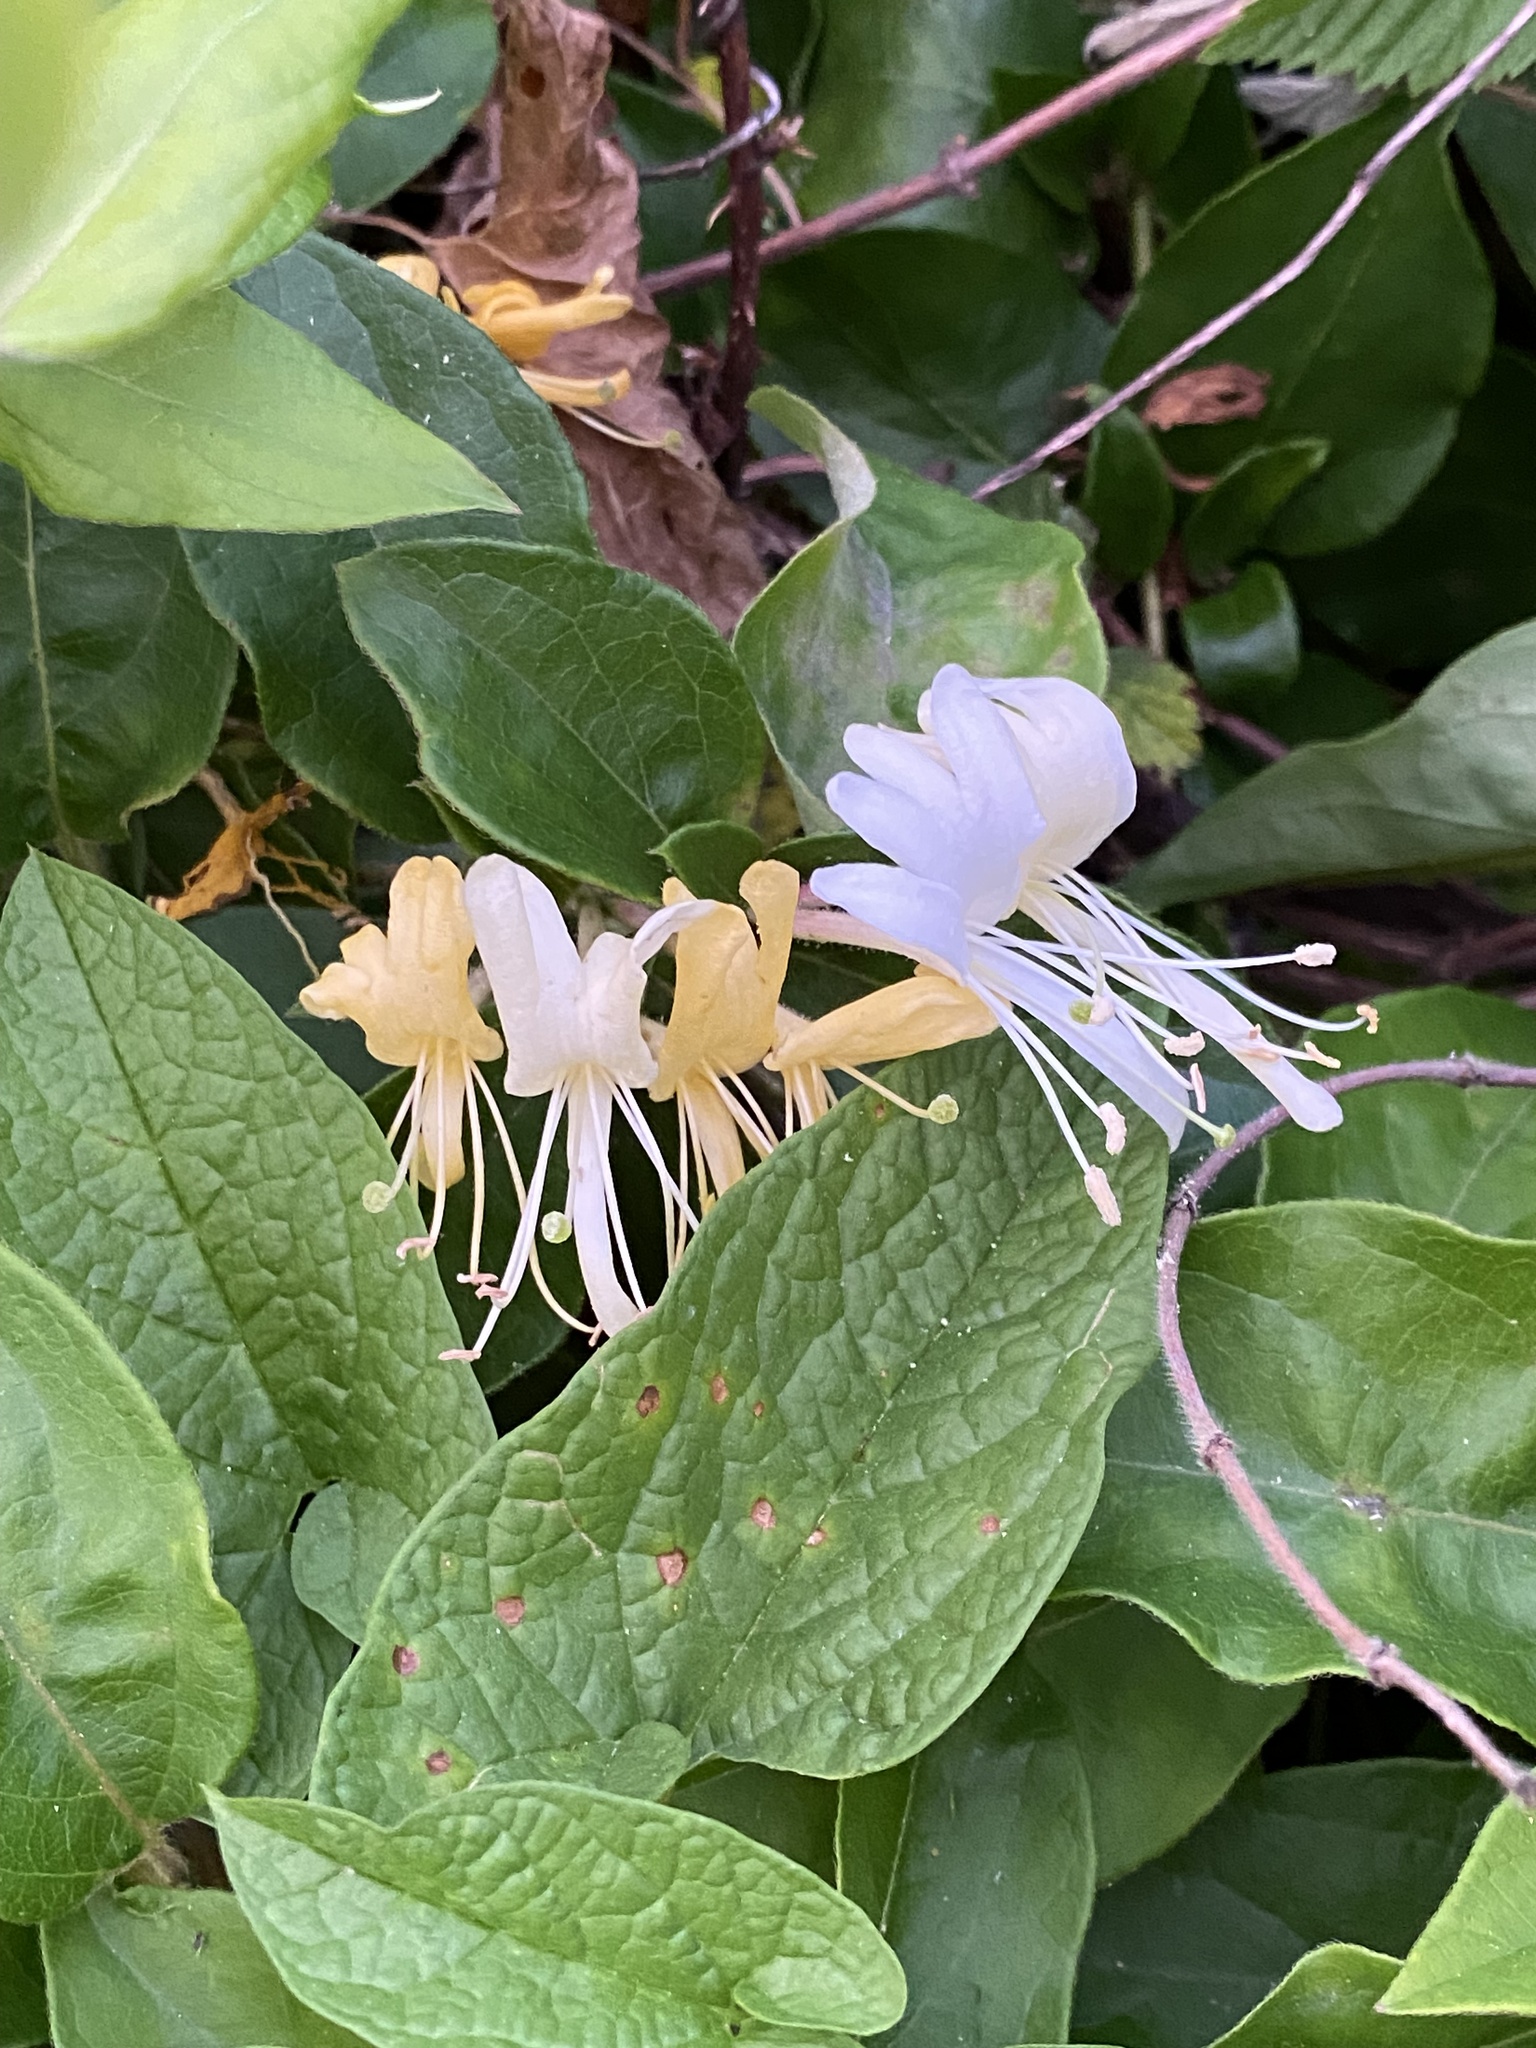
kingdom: Plantae
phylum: Tracheophyta
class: Magnoliopsida
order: Dipsacales
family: Caprifoliaceae
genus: Lonicera
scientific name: Lonicera japonica
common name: Japanese honeysuckle
